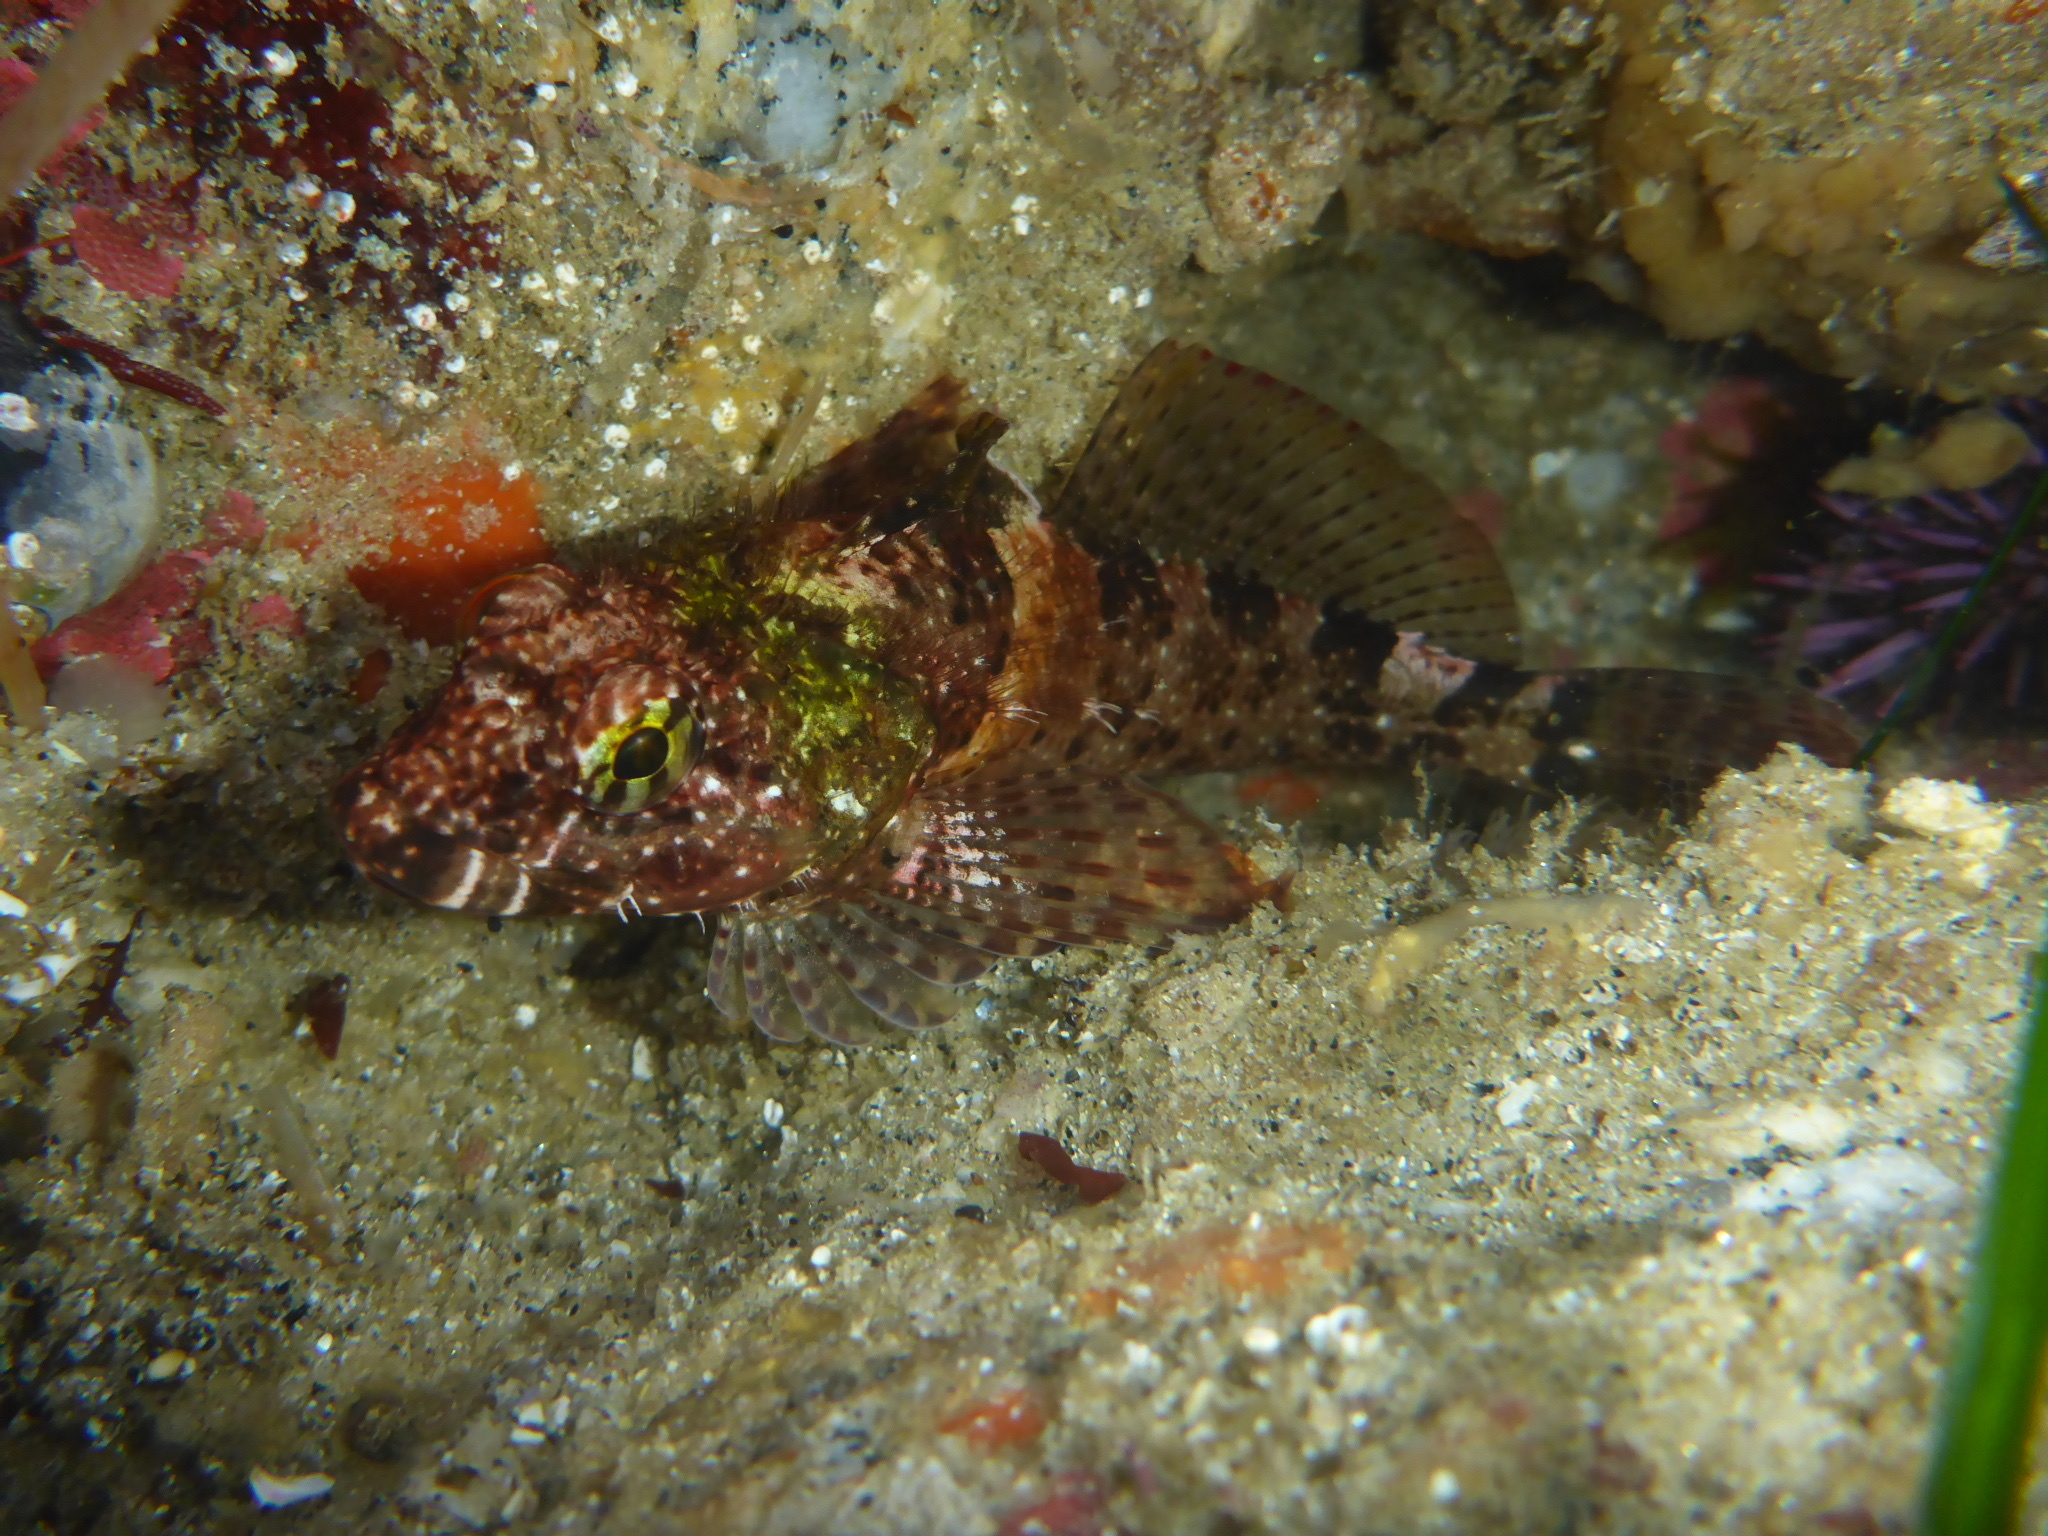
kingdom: Animalia
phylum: Chordata
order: Scorpaeniformes
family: Cottidae
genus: Clinocottus
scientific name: Clinocottus analis
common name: Woolly sculpin
